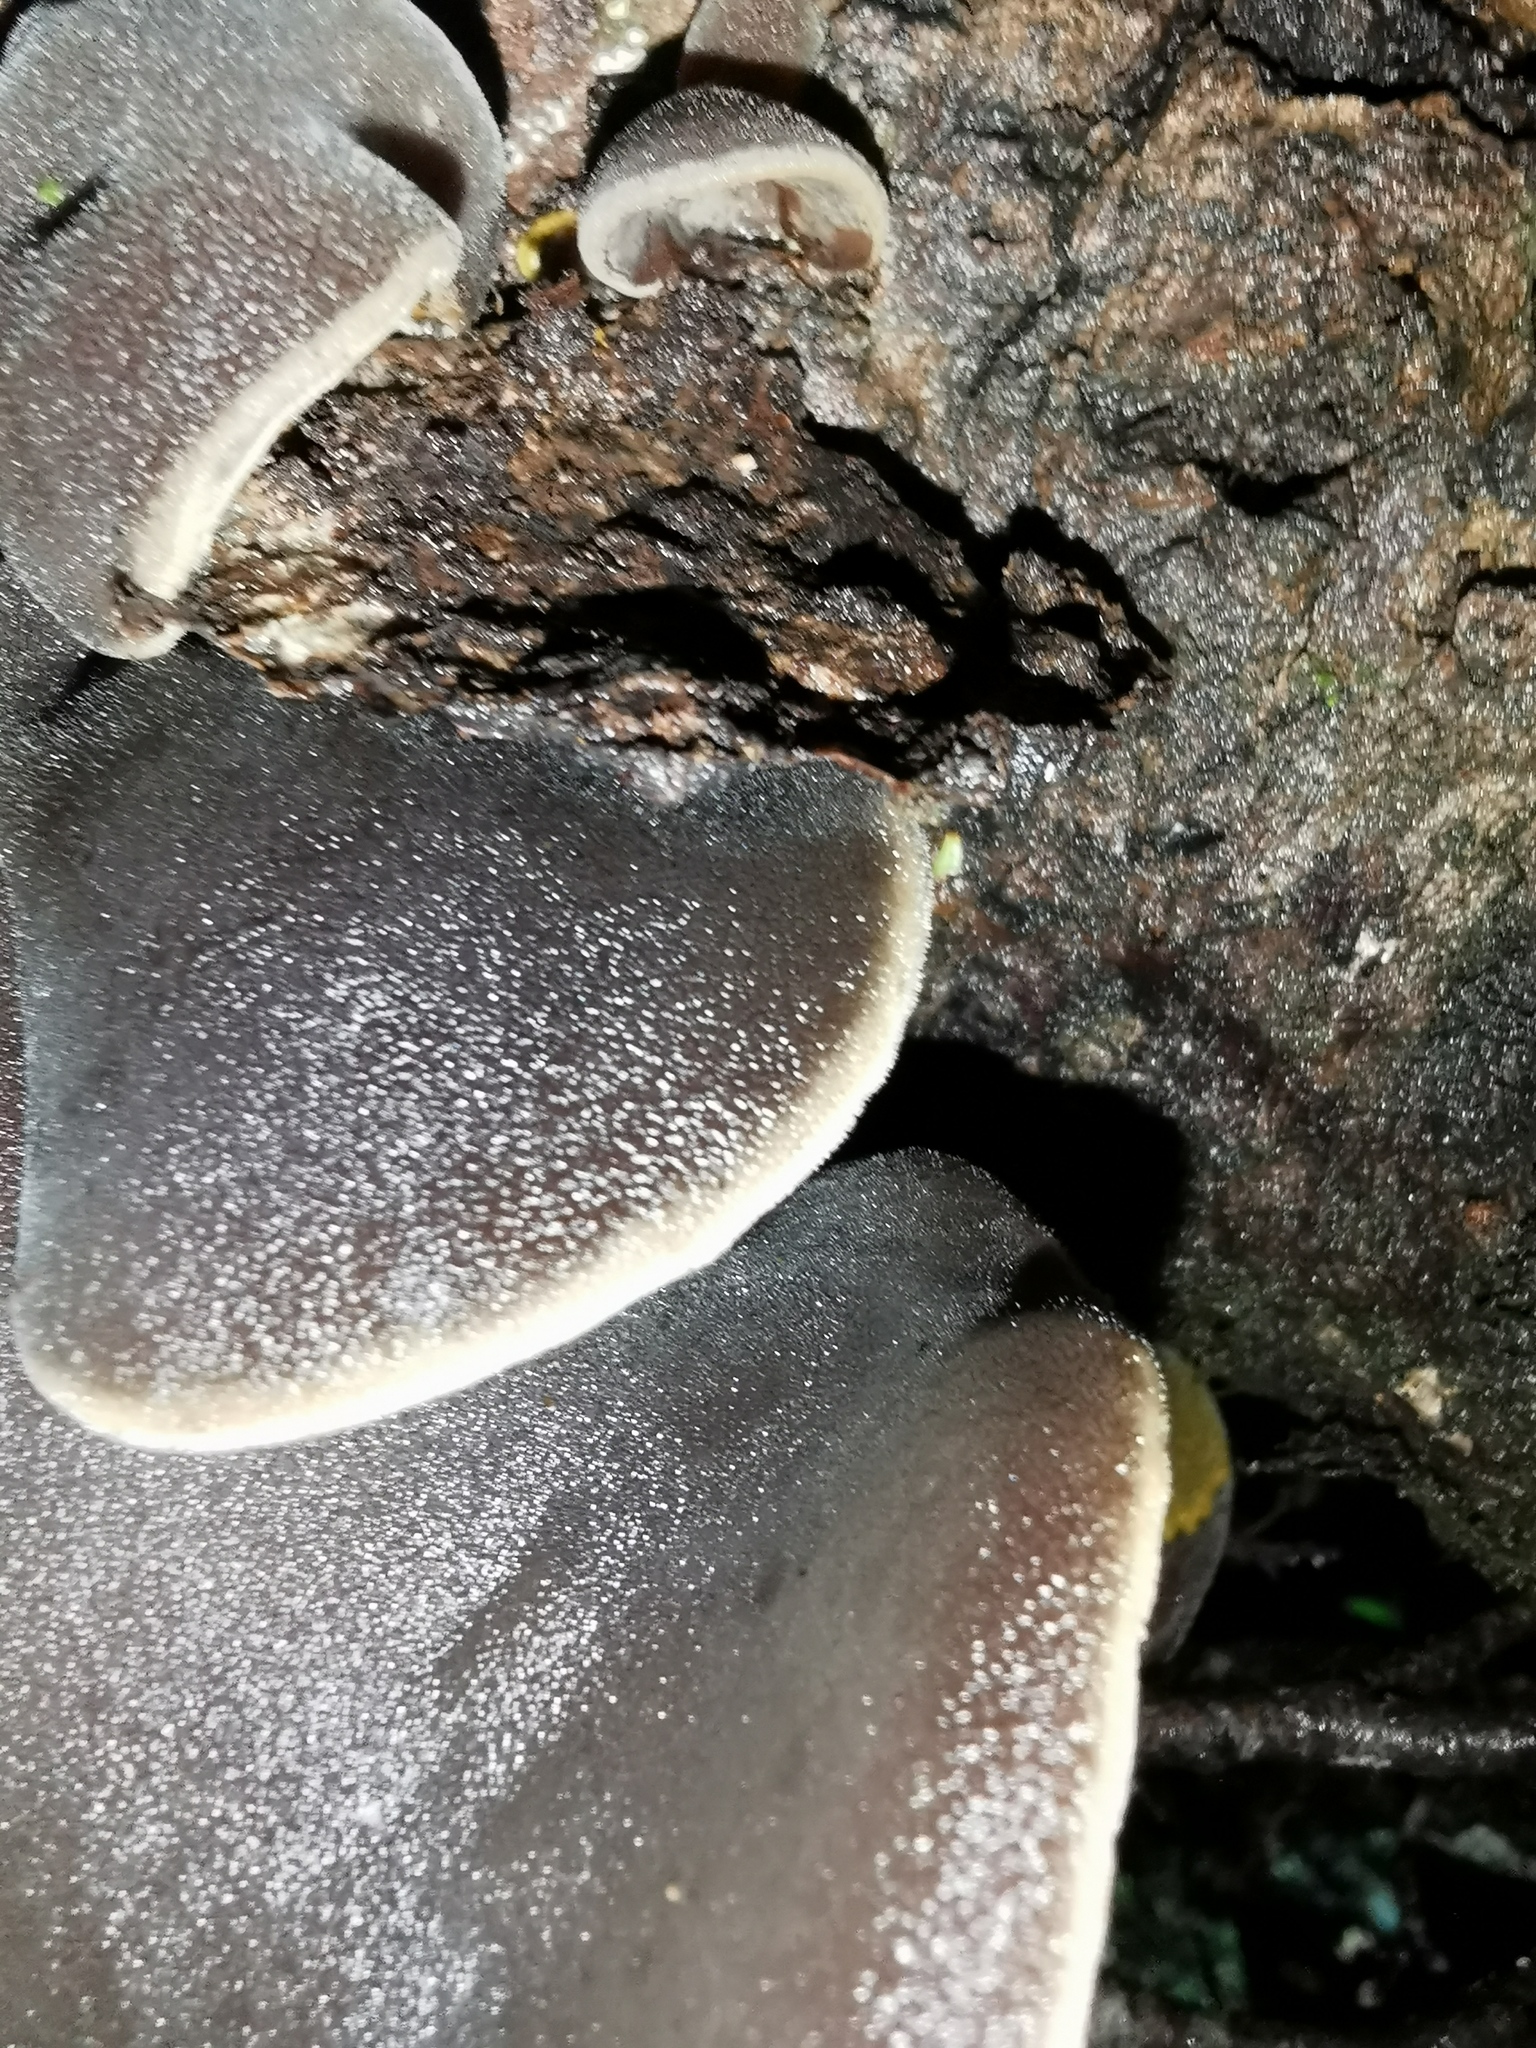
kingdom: Fungi
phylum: Basidiomycota
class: Agaricomycetes
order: Auriculariales
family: Auriculariaceae
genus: Auricularia
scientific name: Auricularia cornea
